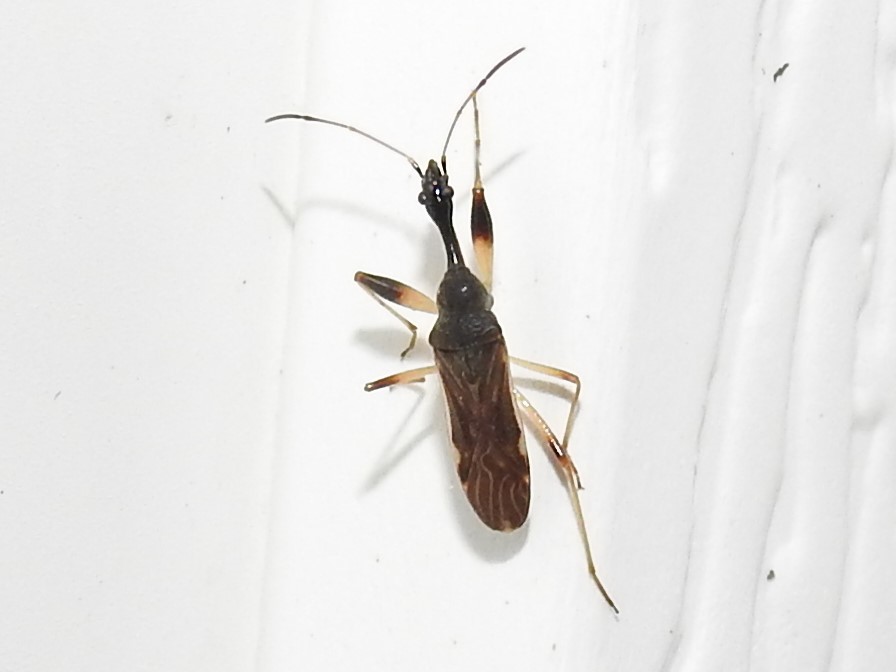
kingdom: Animalia
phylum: Arthropoda
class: Insecta
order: Hemiptera
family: Rhyparochromidae
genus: Myodocha
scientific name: Myodocha serripes
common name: Long-necked seed bug
